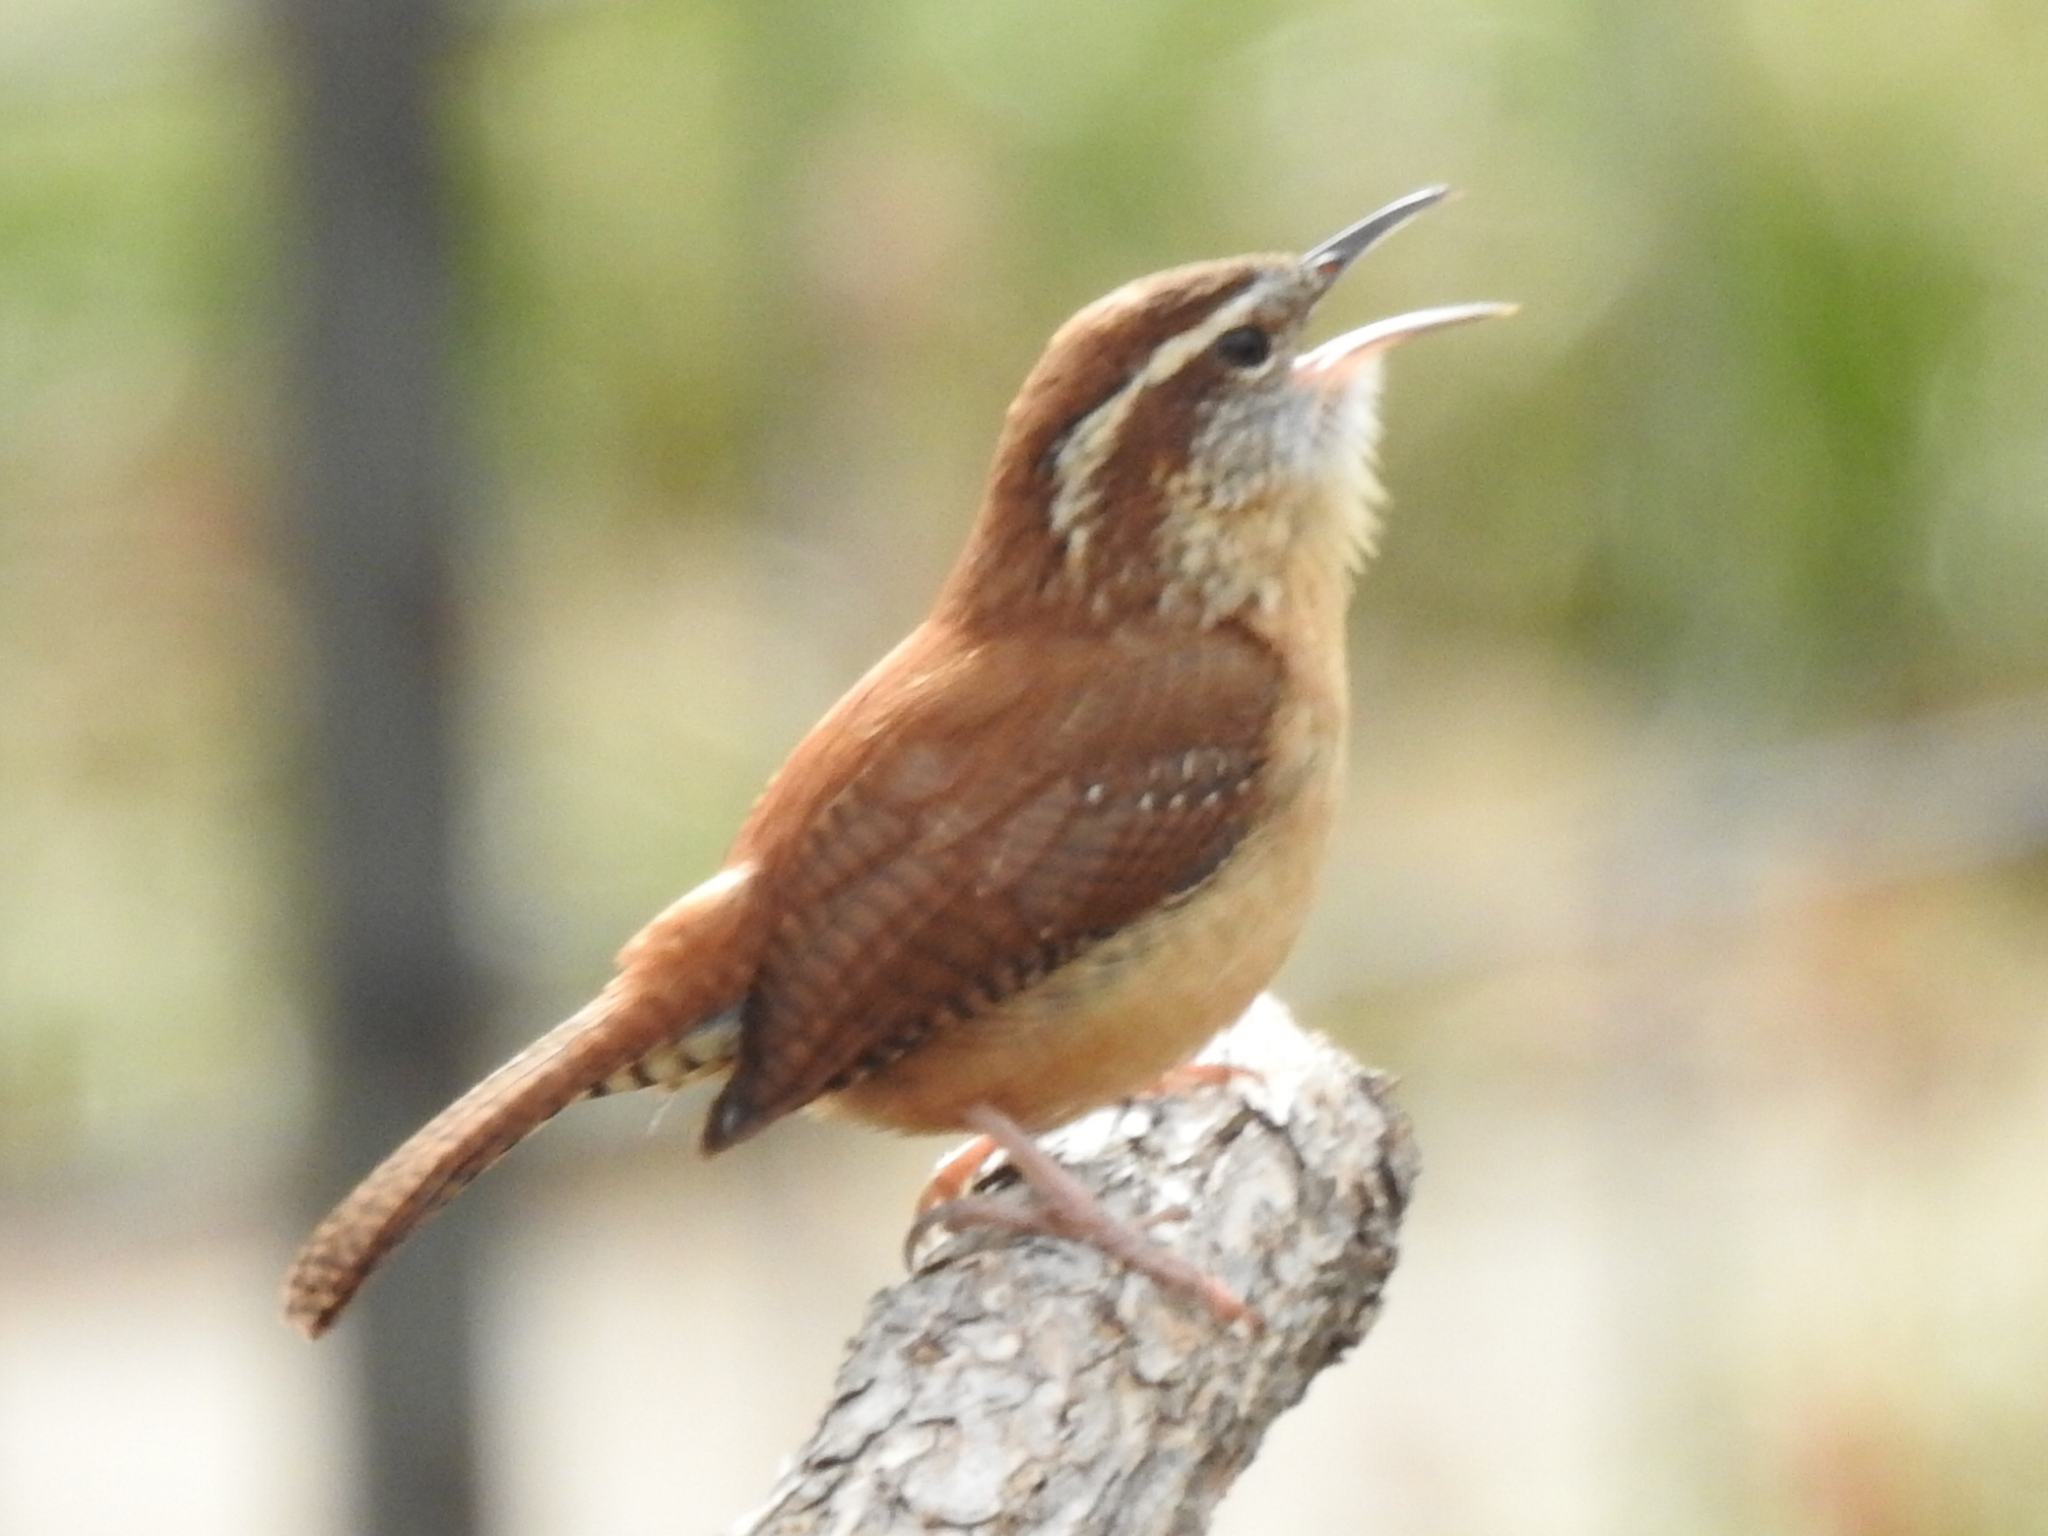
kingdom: Animalia
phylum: Chordata
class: Aves
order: Passeriformes
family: Troglodytidae
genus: Thryothorus
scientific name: Thryothorus ludovicianus
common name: Carolina wren
